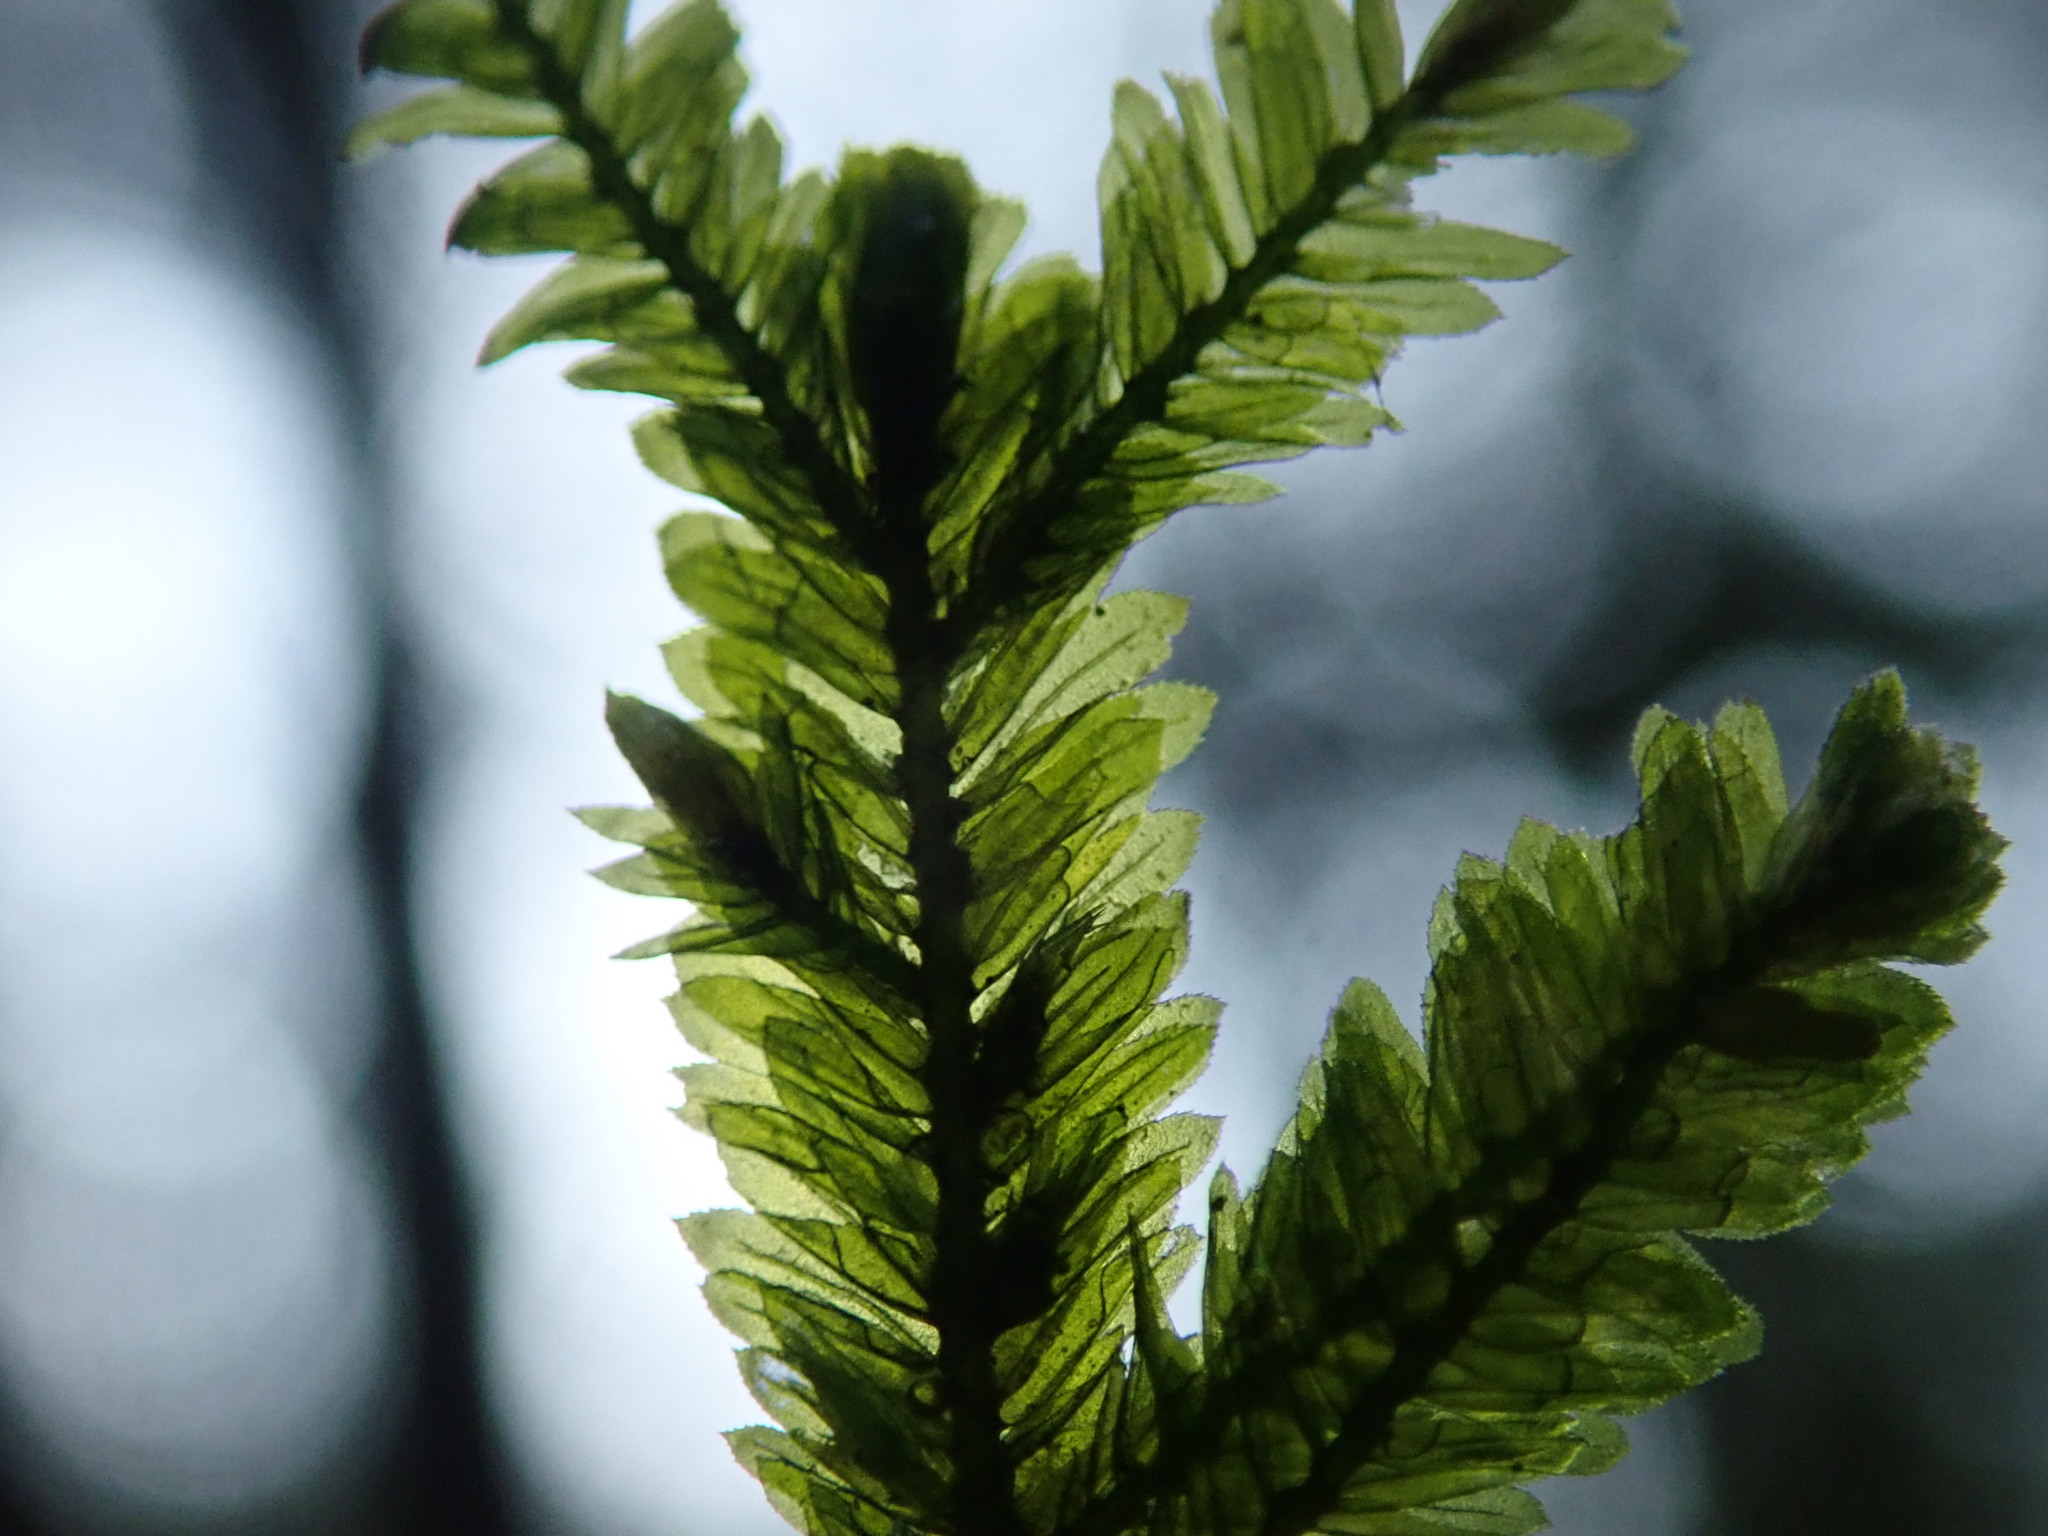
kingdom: Plantae
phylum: Bryophyta
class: Bryopsida
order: Hypnales
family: Neckeraceae
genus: Dannorrisia
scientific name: Dannorrisia bigelovii
